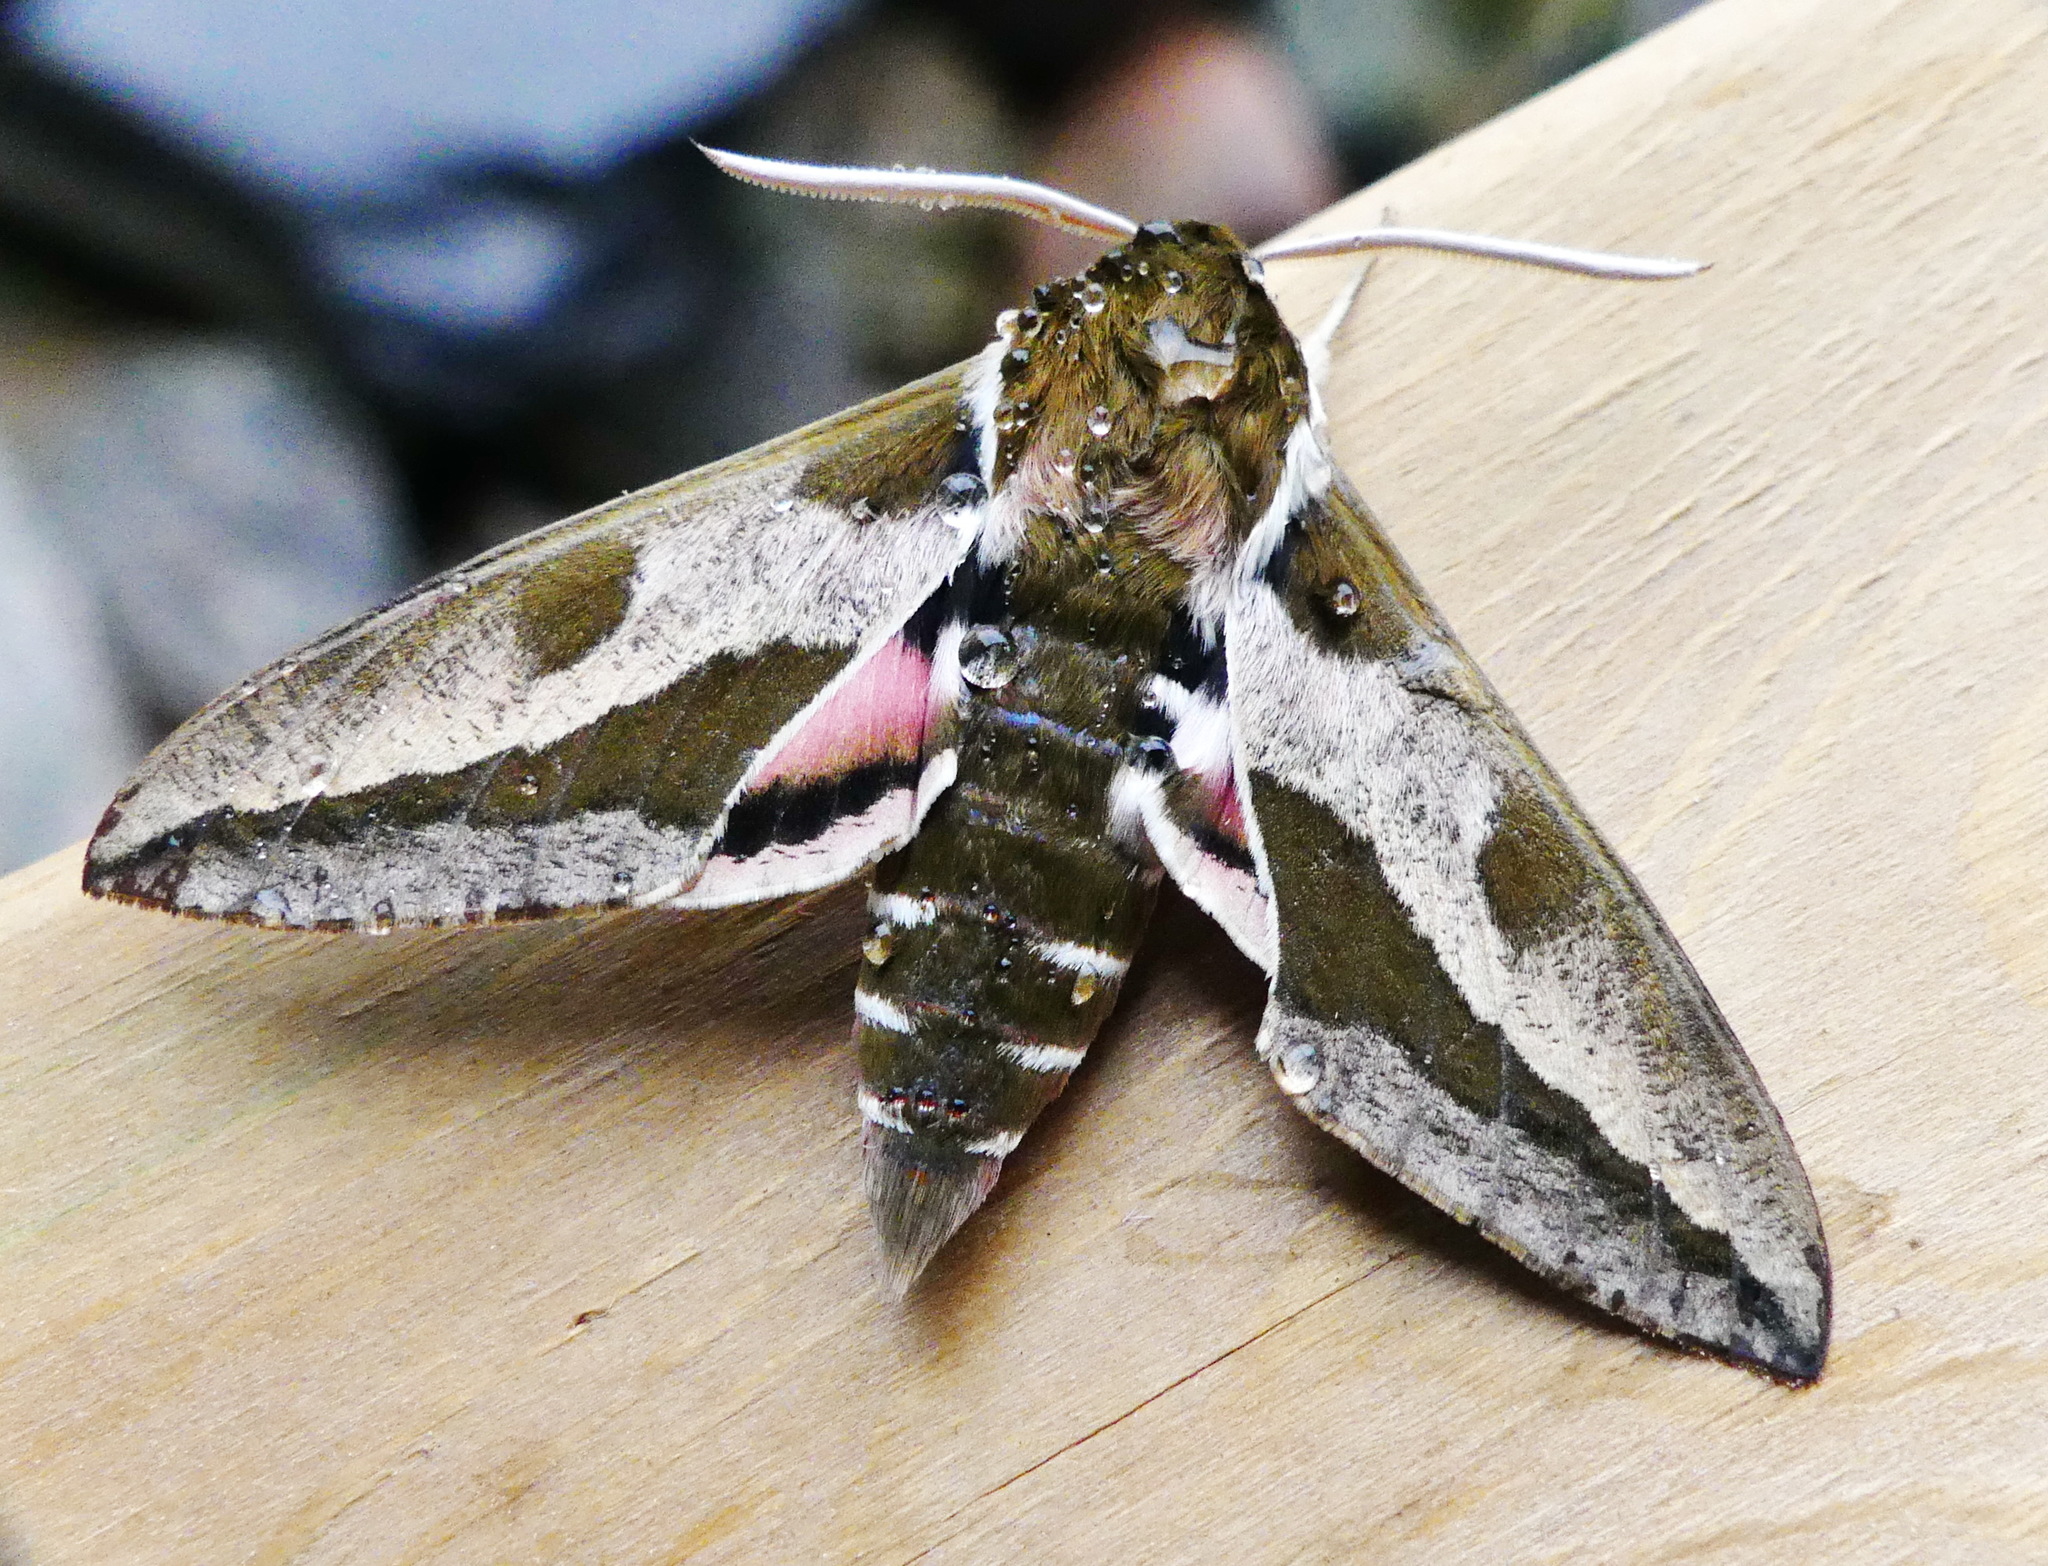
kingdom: Animalia
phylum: Arthropoda
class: Insecta
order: Lepidoptera
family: Sphingidae
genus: Hyles
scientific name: Hyles euphorbiae
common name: Spurge hawk-moth
